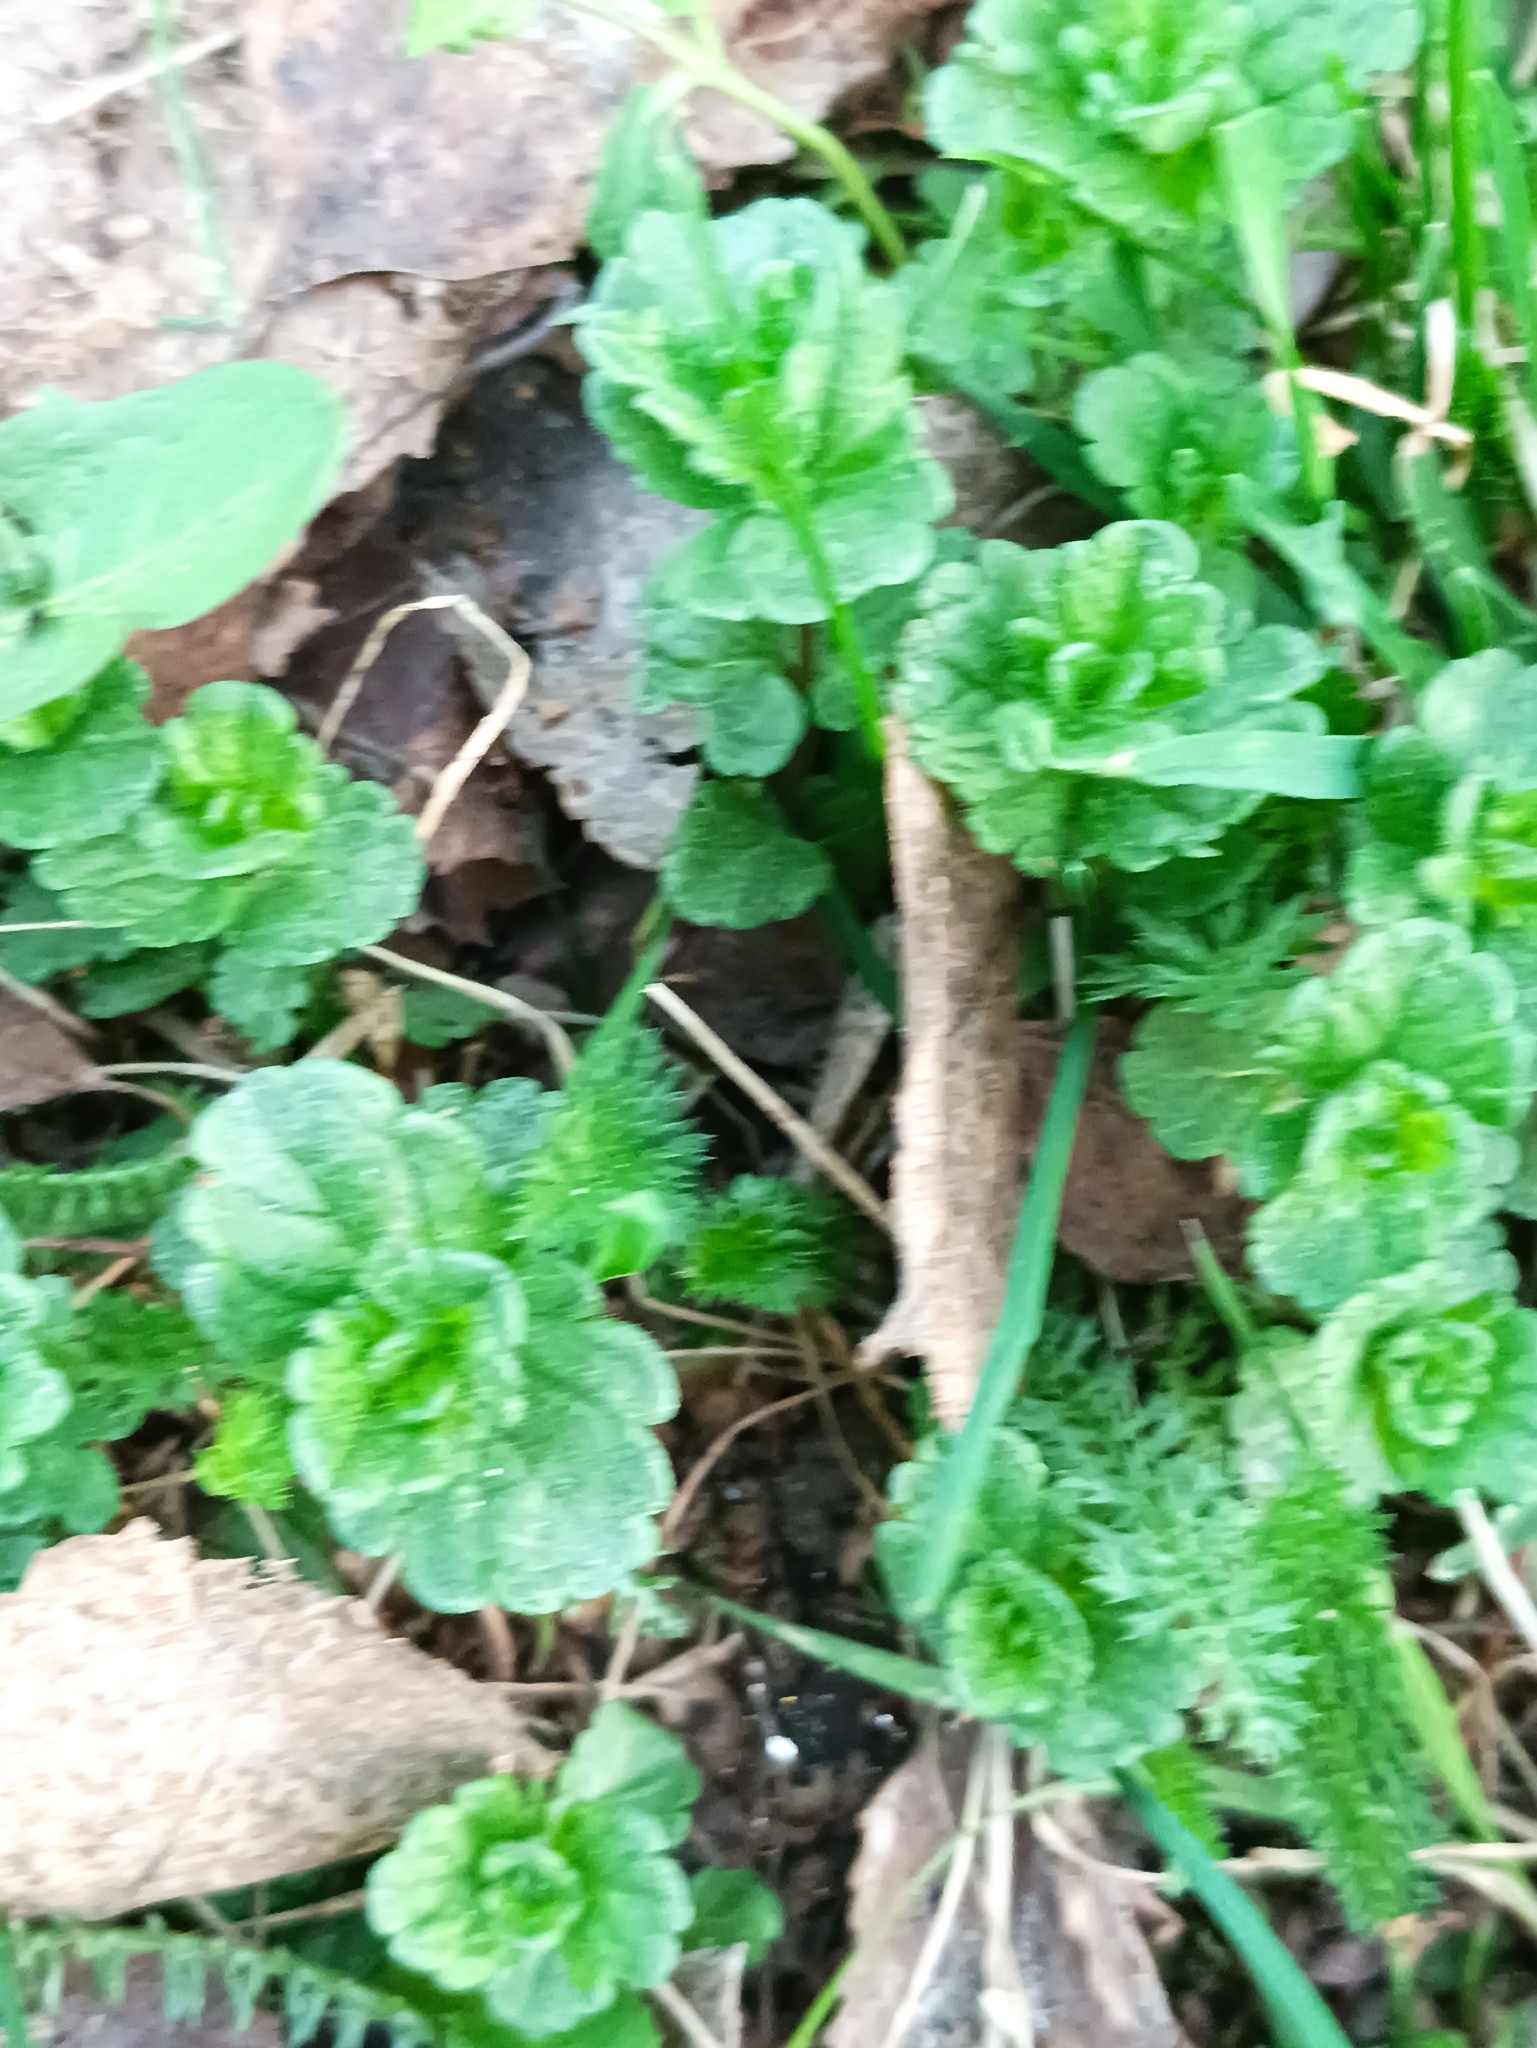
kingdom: Plantae
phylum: Tracheophyta
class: Magnoliopsida
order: Lamiales
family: Plantaginaceae
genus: Veronica
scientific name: Veronica chamaedrys
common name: Germander speedwell
